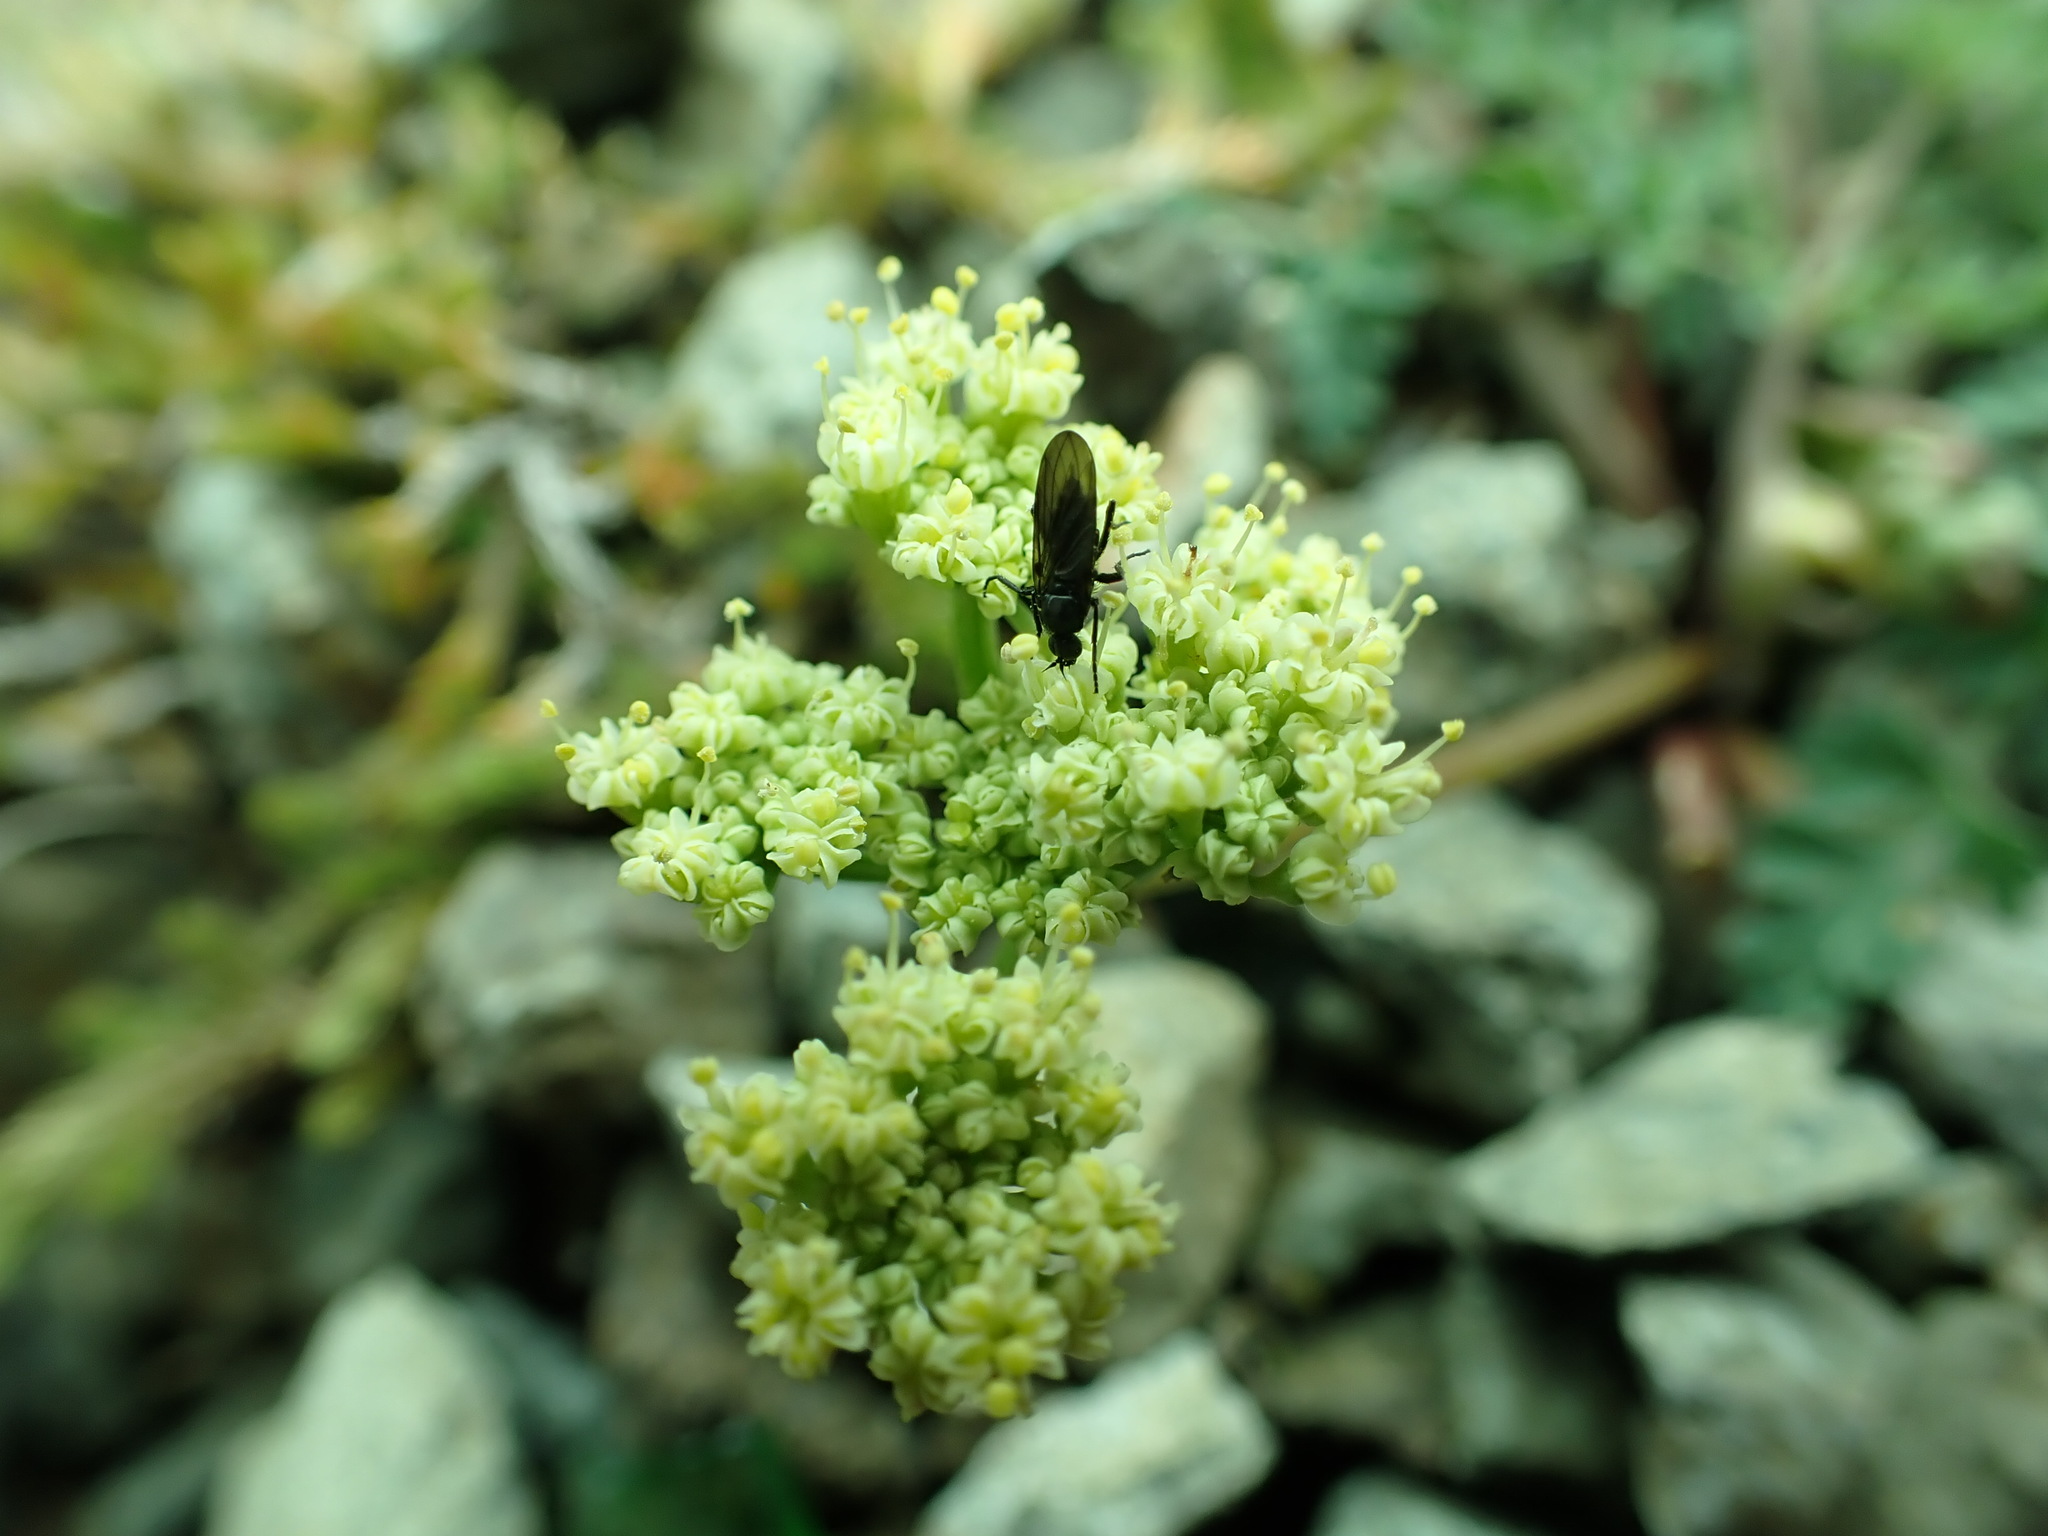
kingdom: Plantae
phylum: Tracheophyta
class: Magnoliopsida
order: Apiales
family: Apiaceae
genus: Lomatium
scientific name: Lomatium martindalei
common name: Cascade desert-parsley
